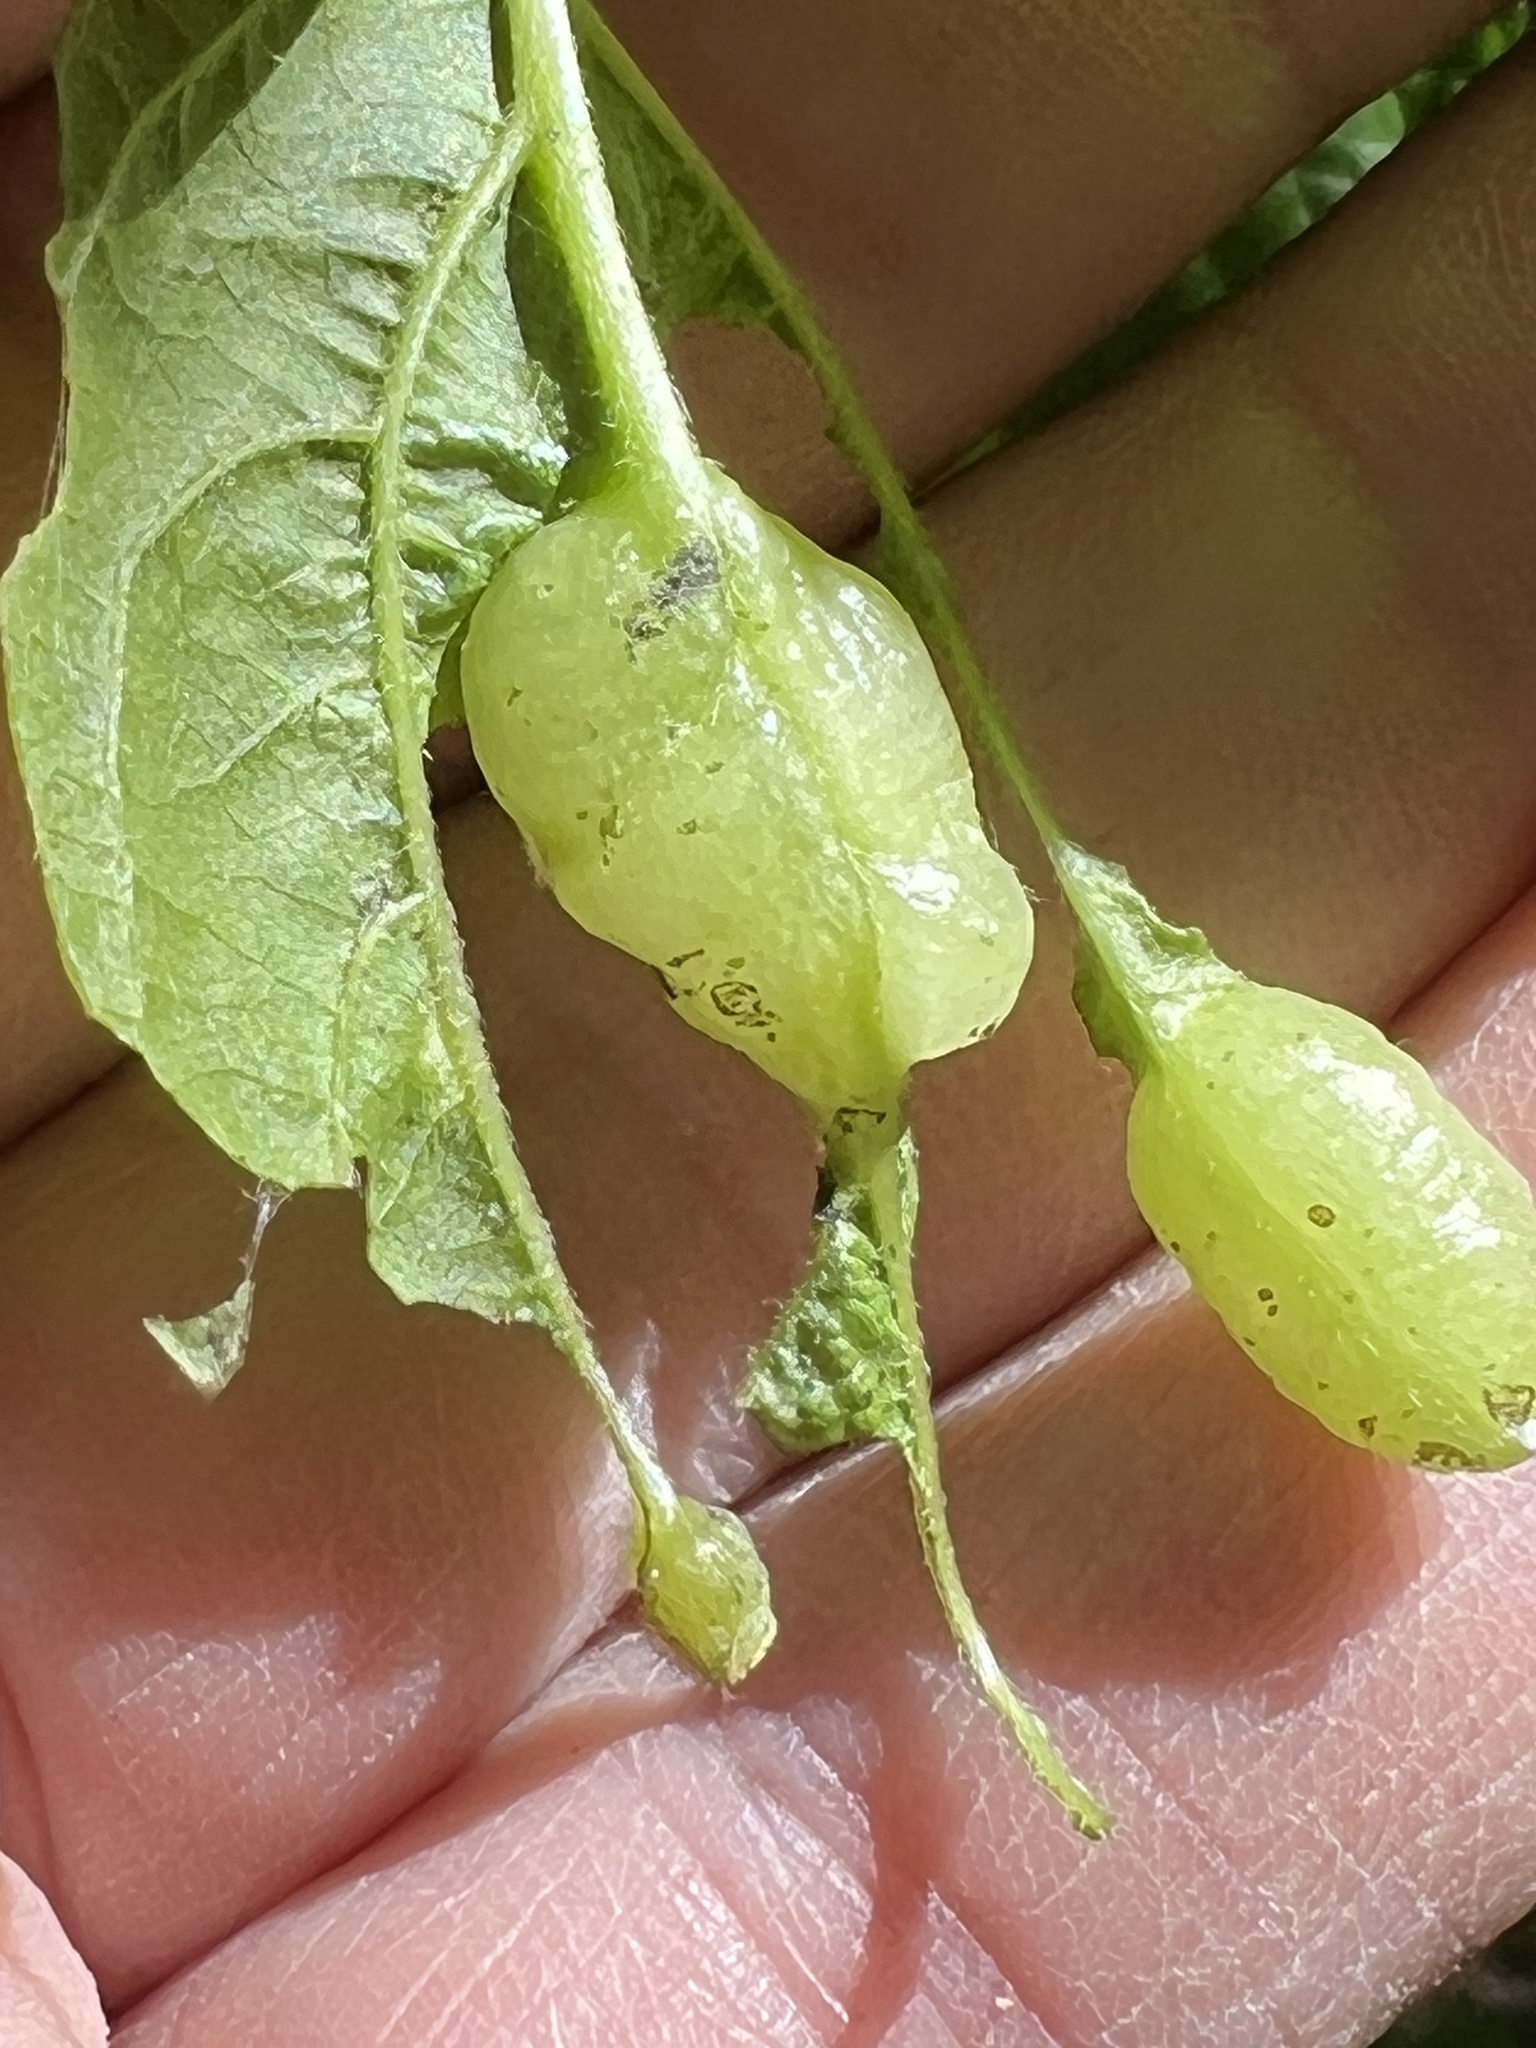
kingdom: Animalia
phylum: Arthropoda
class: Insecta
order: Diptera
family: Cecidomyiidae
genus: Contarinia
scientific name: Contarinia negundinis
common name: Boxelder budgall midge
